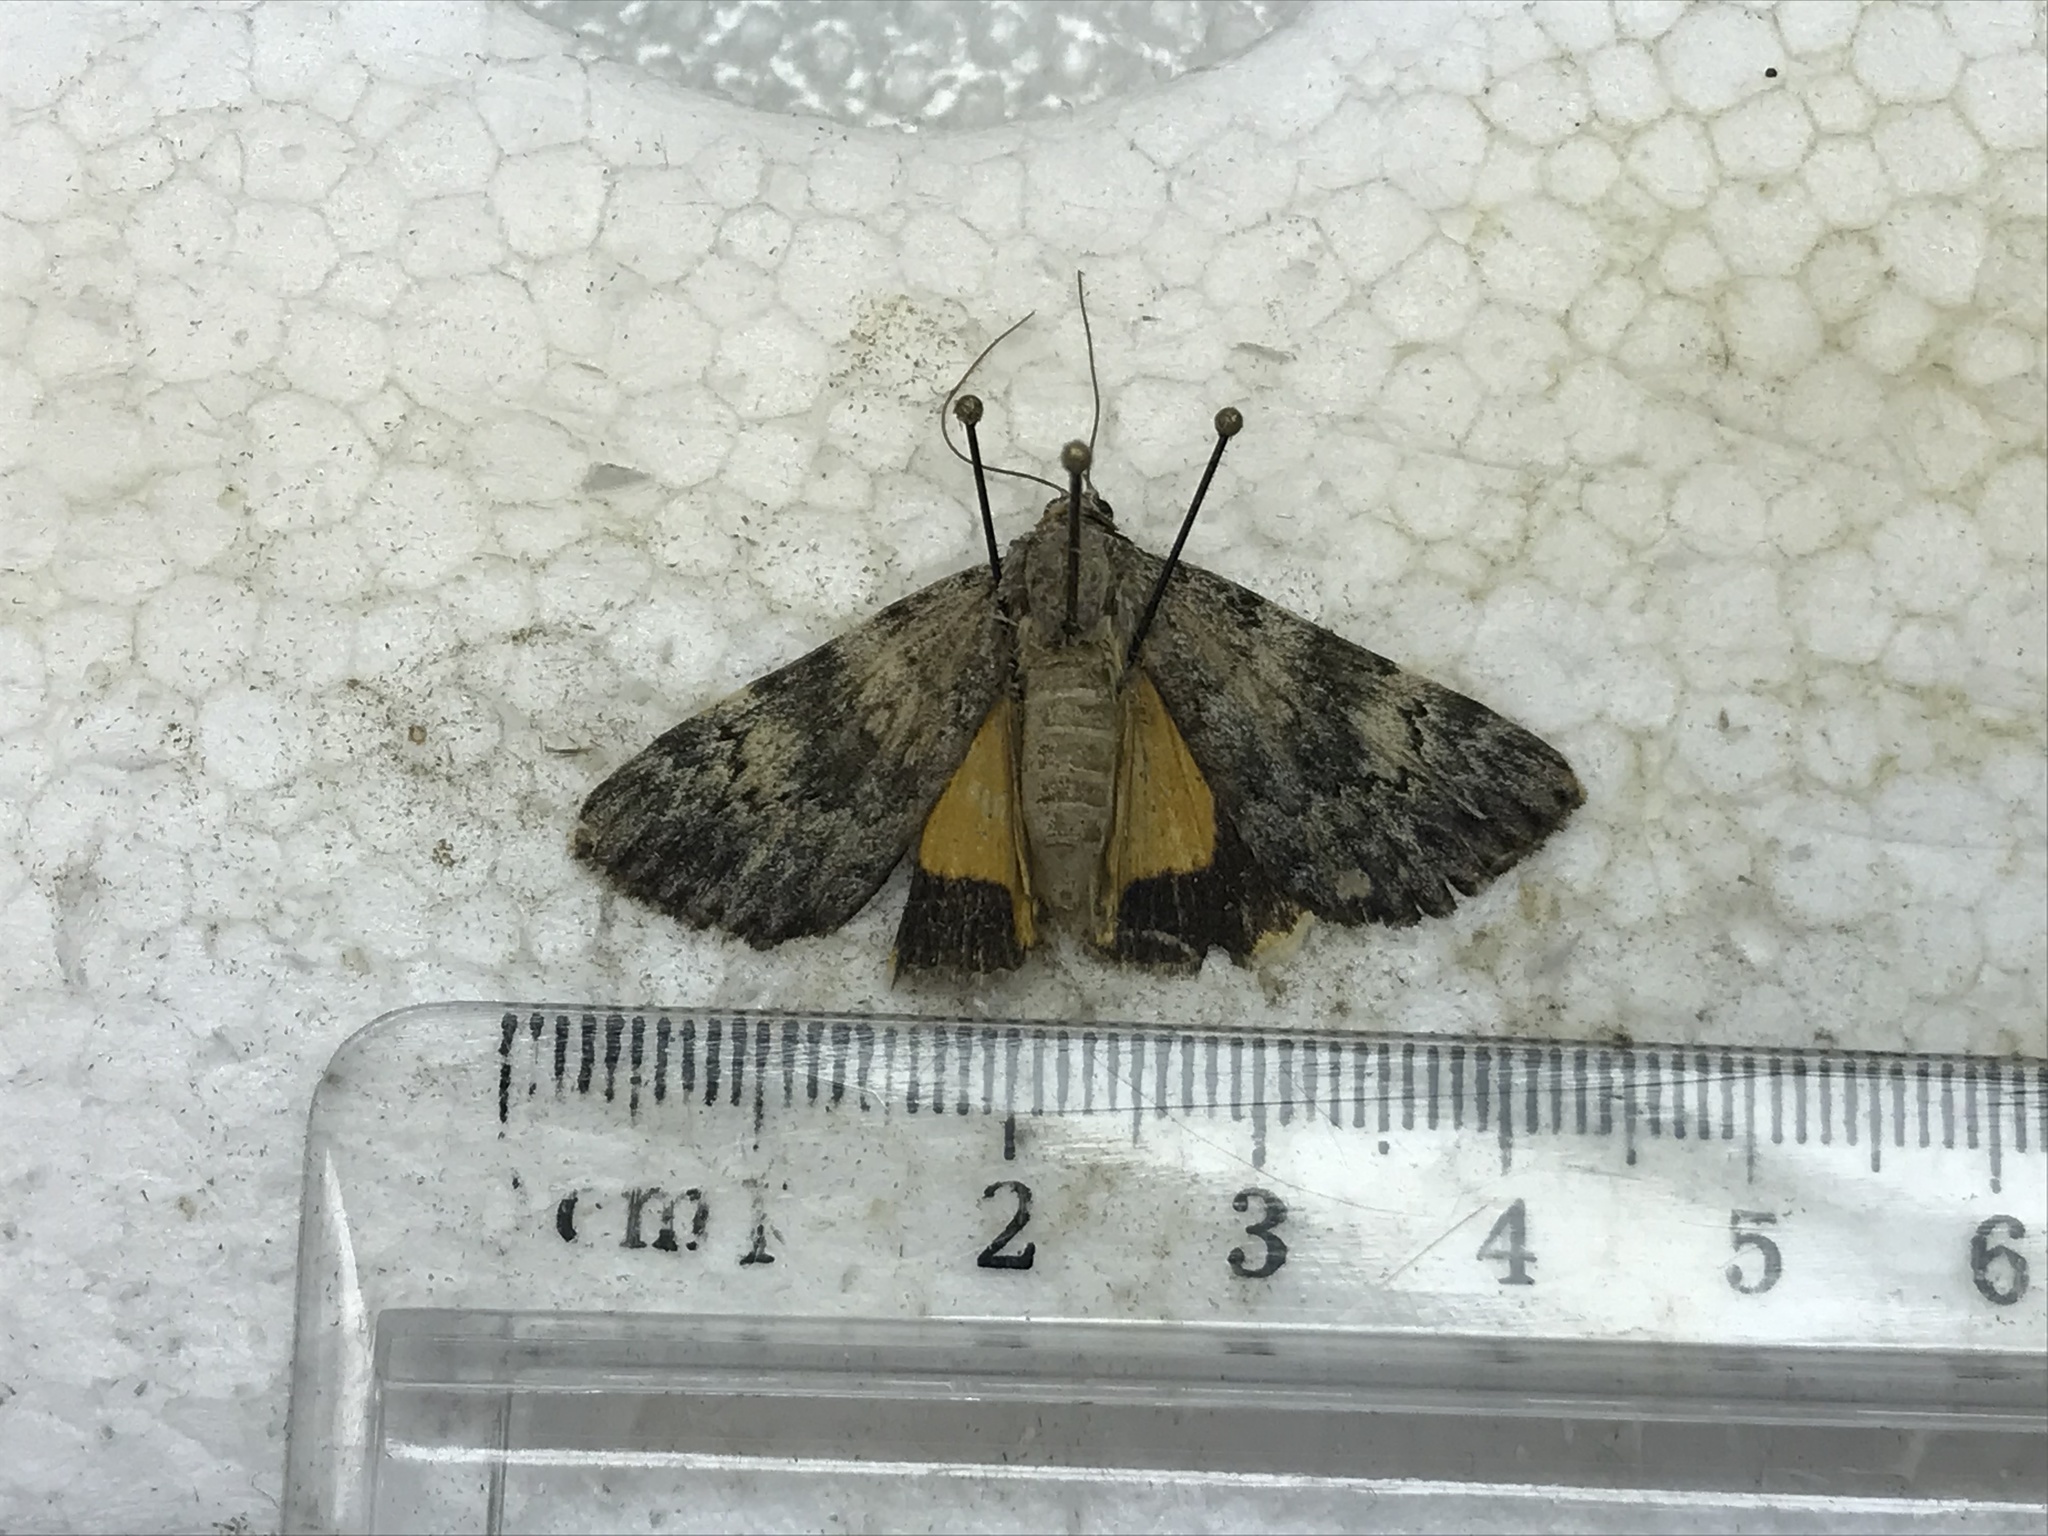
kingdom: Animalia
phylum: Arthropoda
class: Insecta
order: Lepidoptera
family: Erebidae
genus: Catocala
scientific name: Catocala lineella
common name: Little lined underwing
